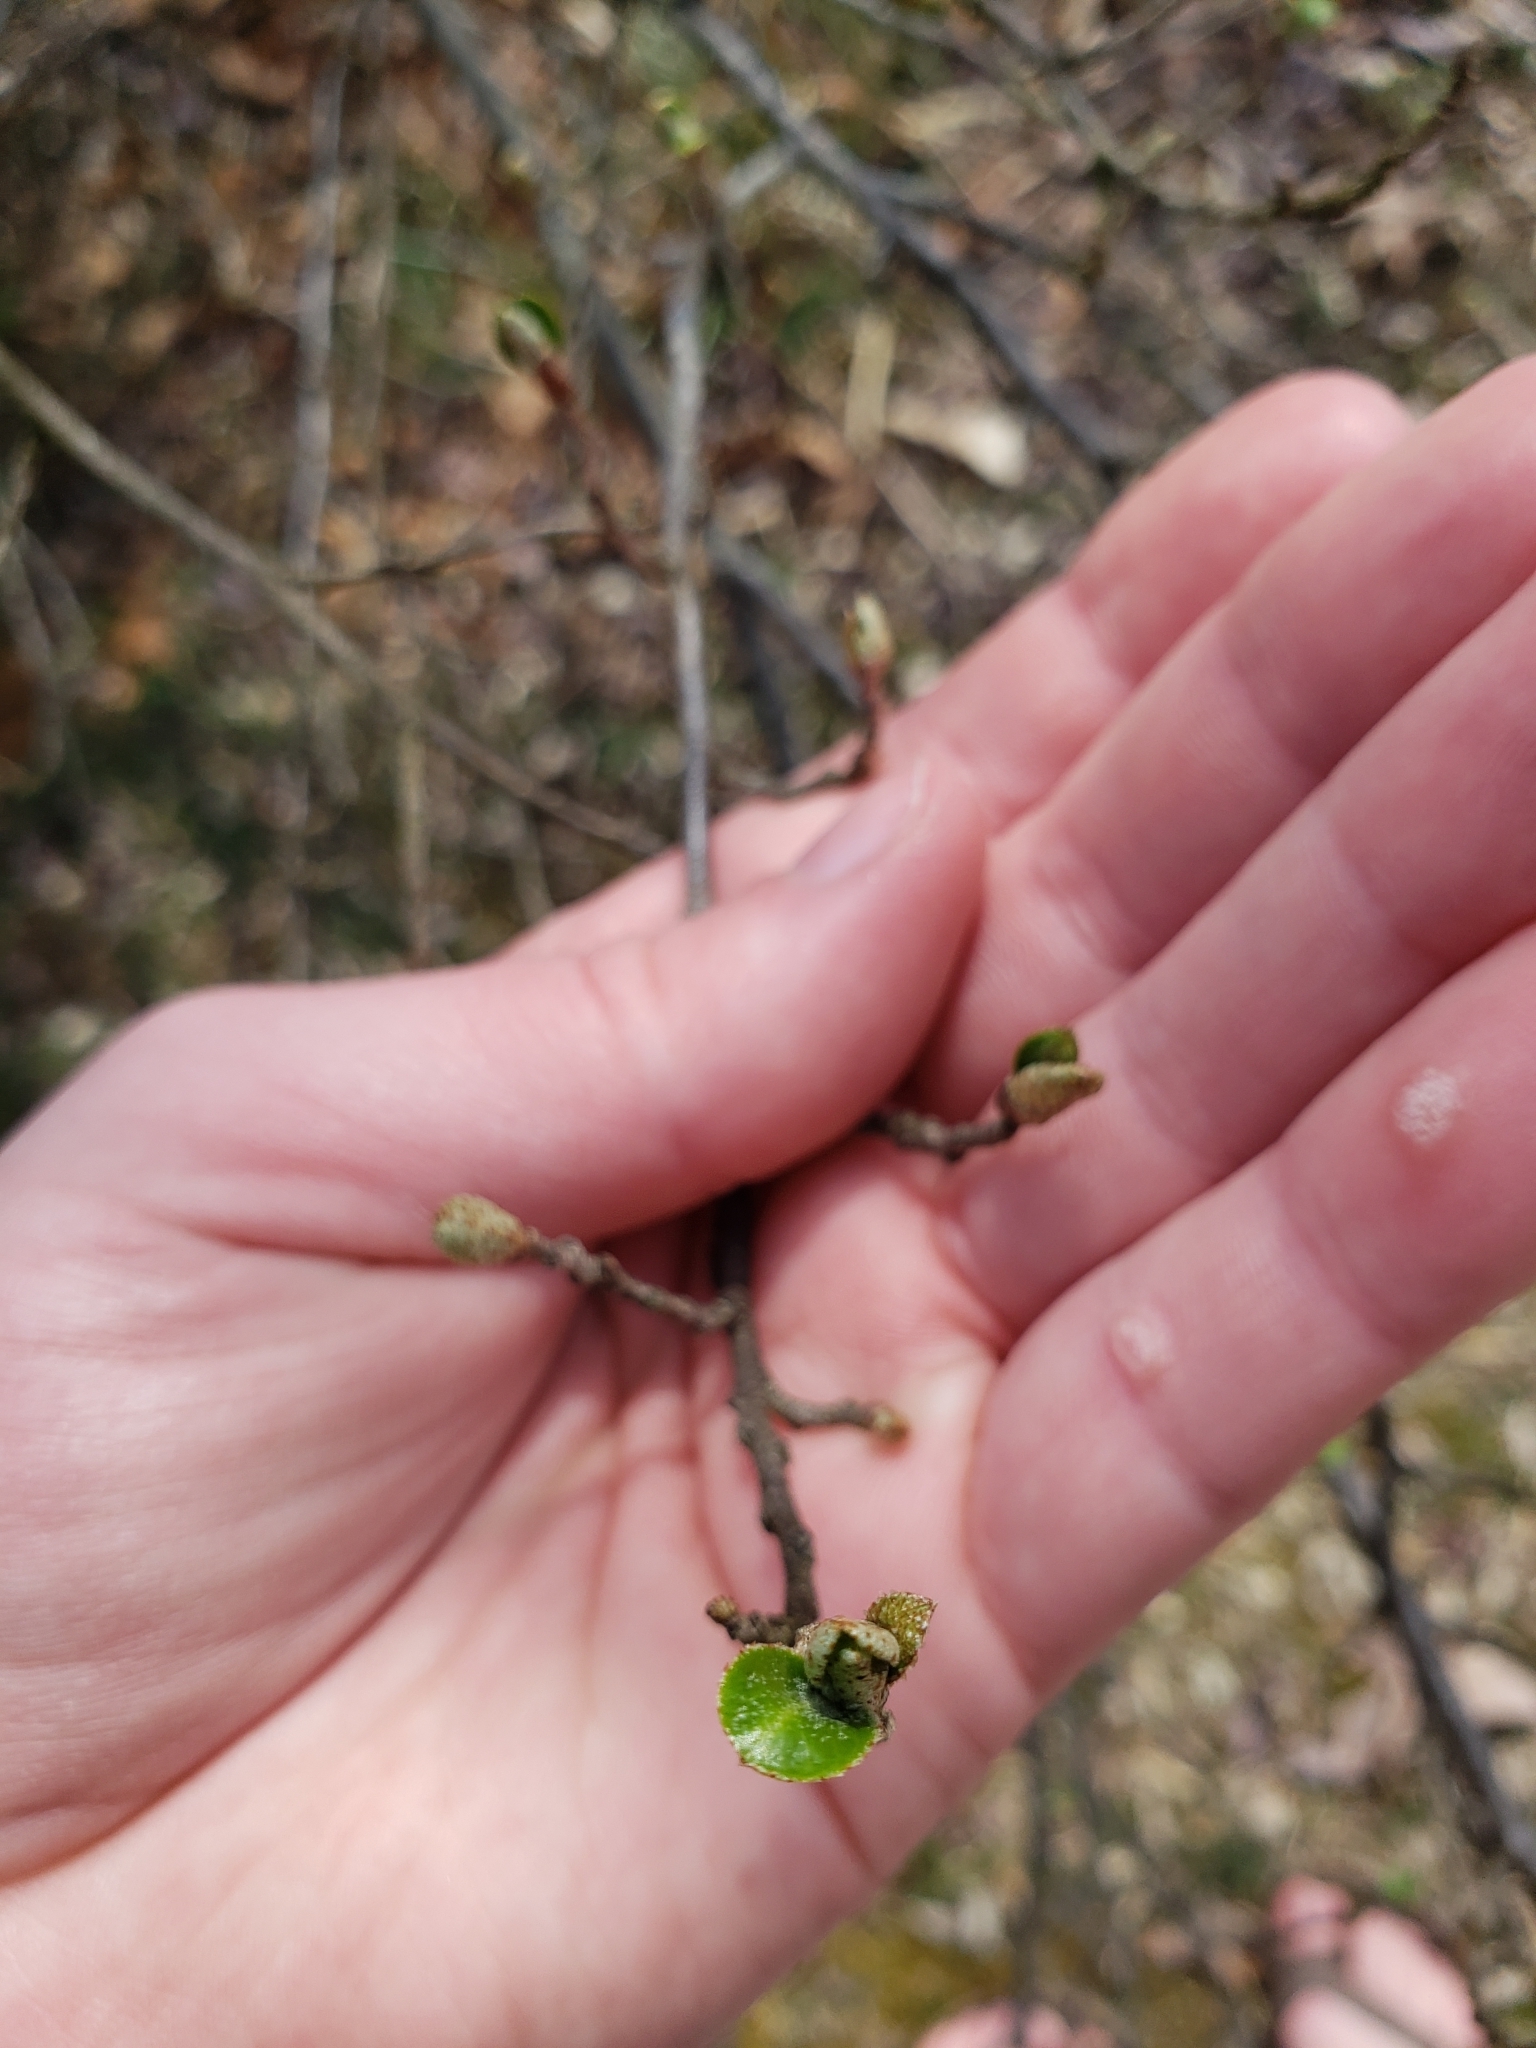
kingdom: Plantae
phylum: Tracheophyta
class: Magnoliopsida
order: Rosales
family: Elaeagnaceae
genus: Elaeagnus
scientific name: Elaeagnus umbellata
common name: Autumn olive
